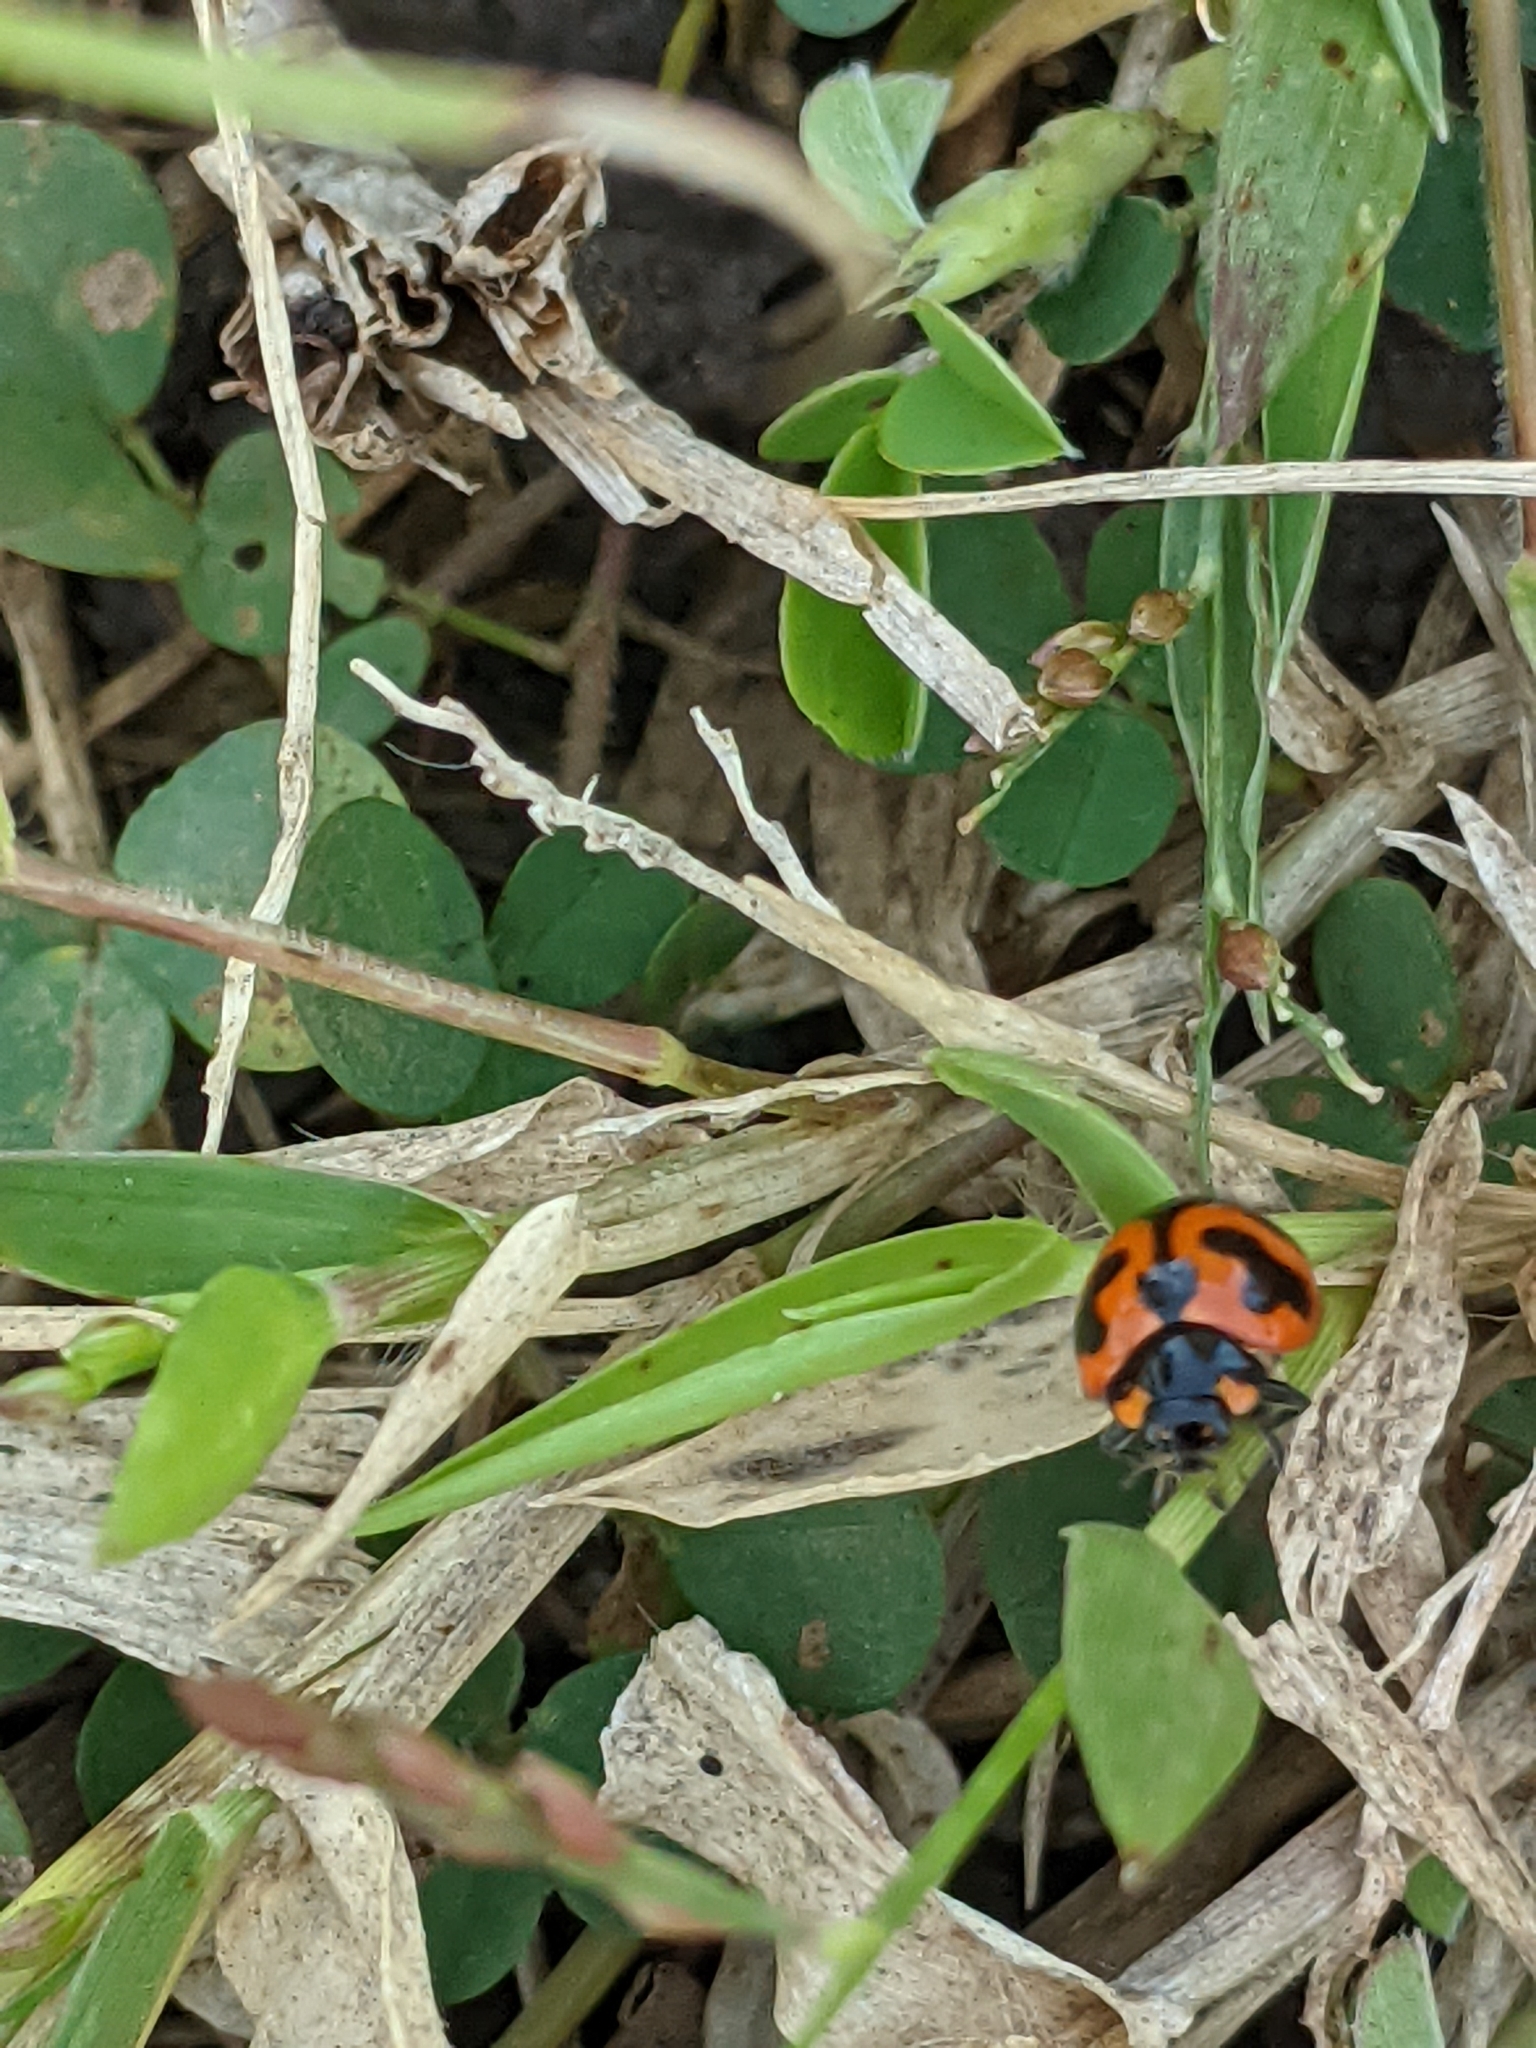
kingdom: Animalia
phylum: Arthropoda
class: Insecta
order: Coleoptera
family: Coccinellidae
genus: Coccinella
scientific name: Coccinella transversalis
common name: Transverse lady beetle
